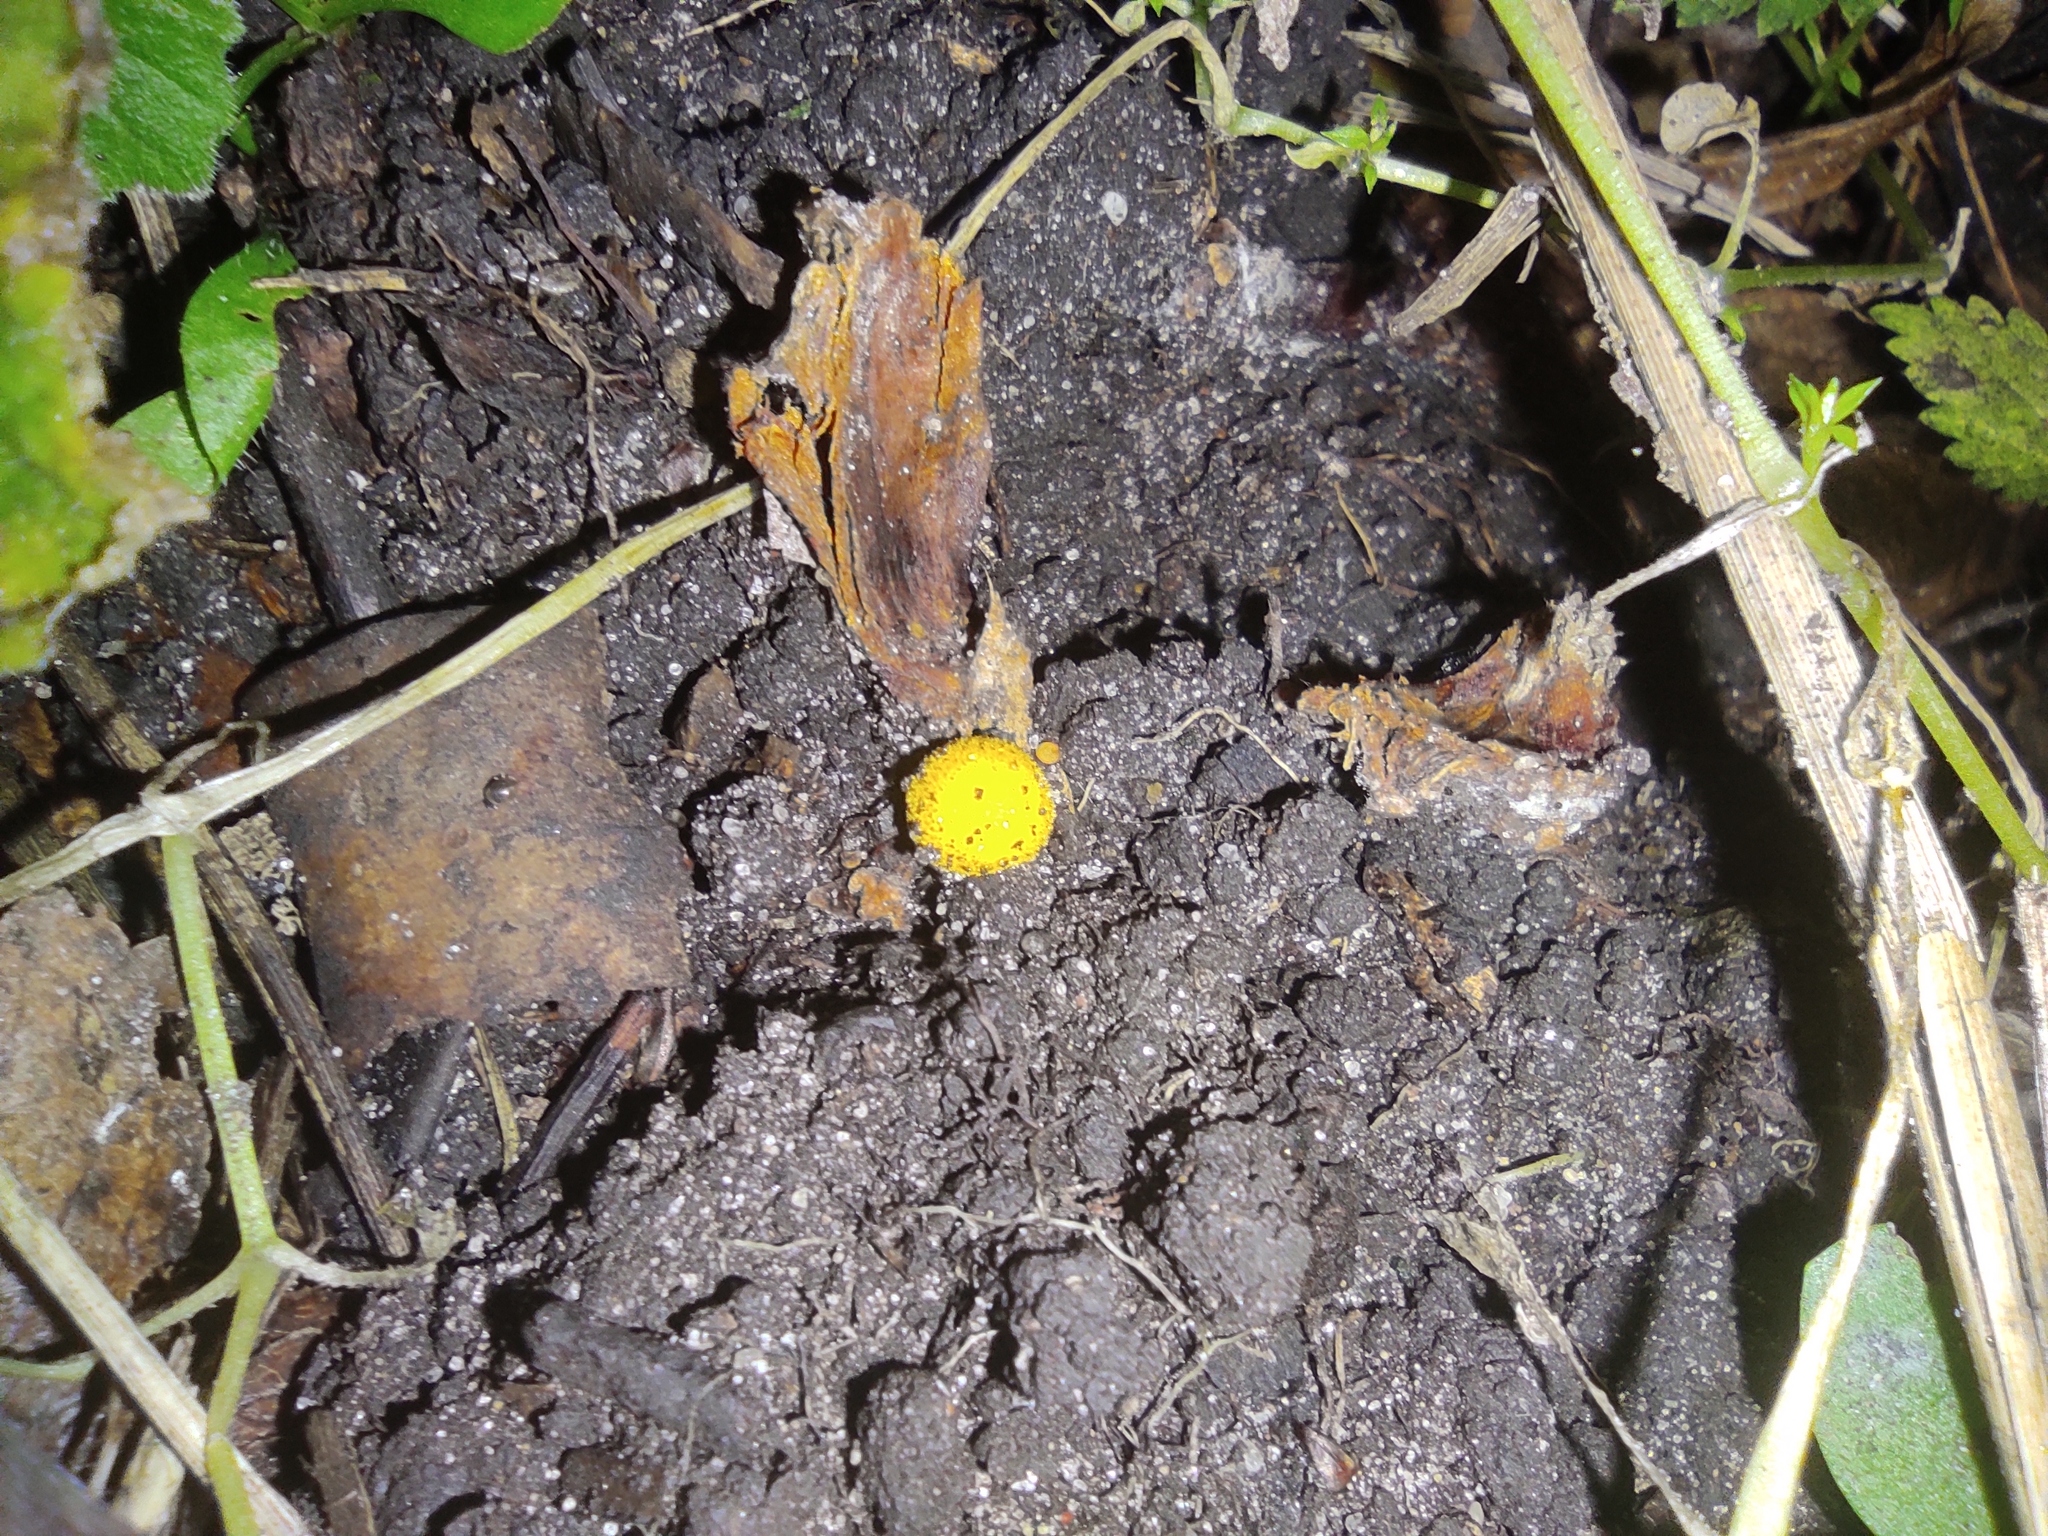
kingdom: Fungi
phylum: Basidiomycota
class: Agaricomycetes
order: Agaricales
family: Lycoperdaceae
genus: Lycoperdon
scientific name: Lycoperdon flavotinctum
